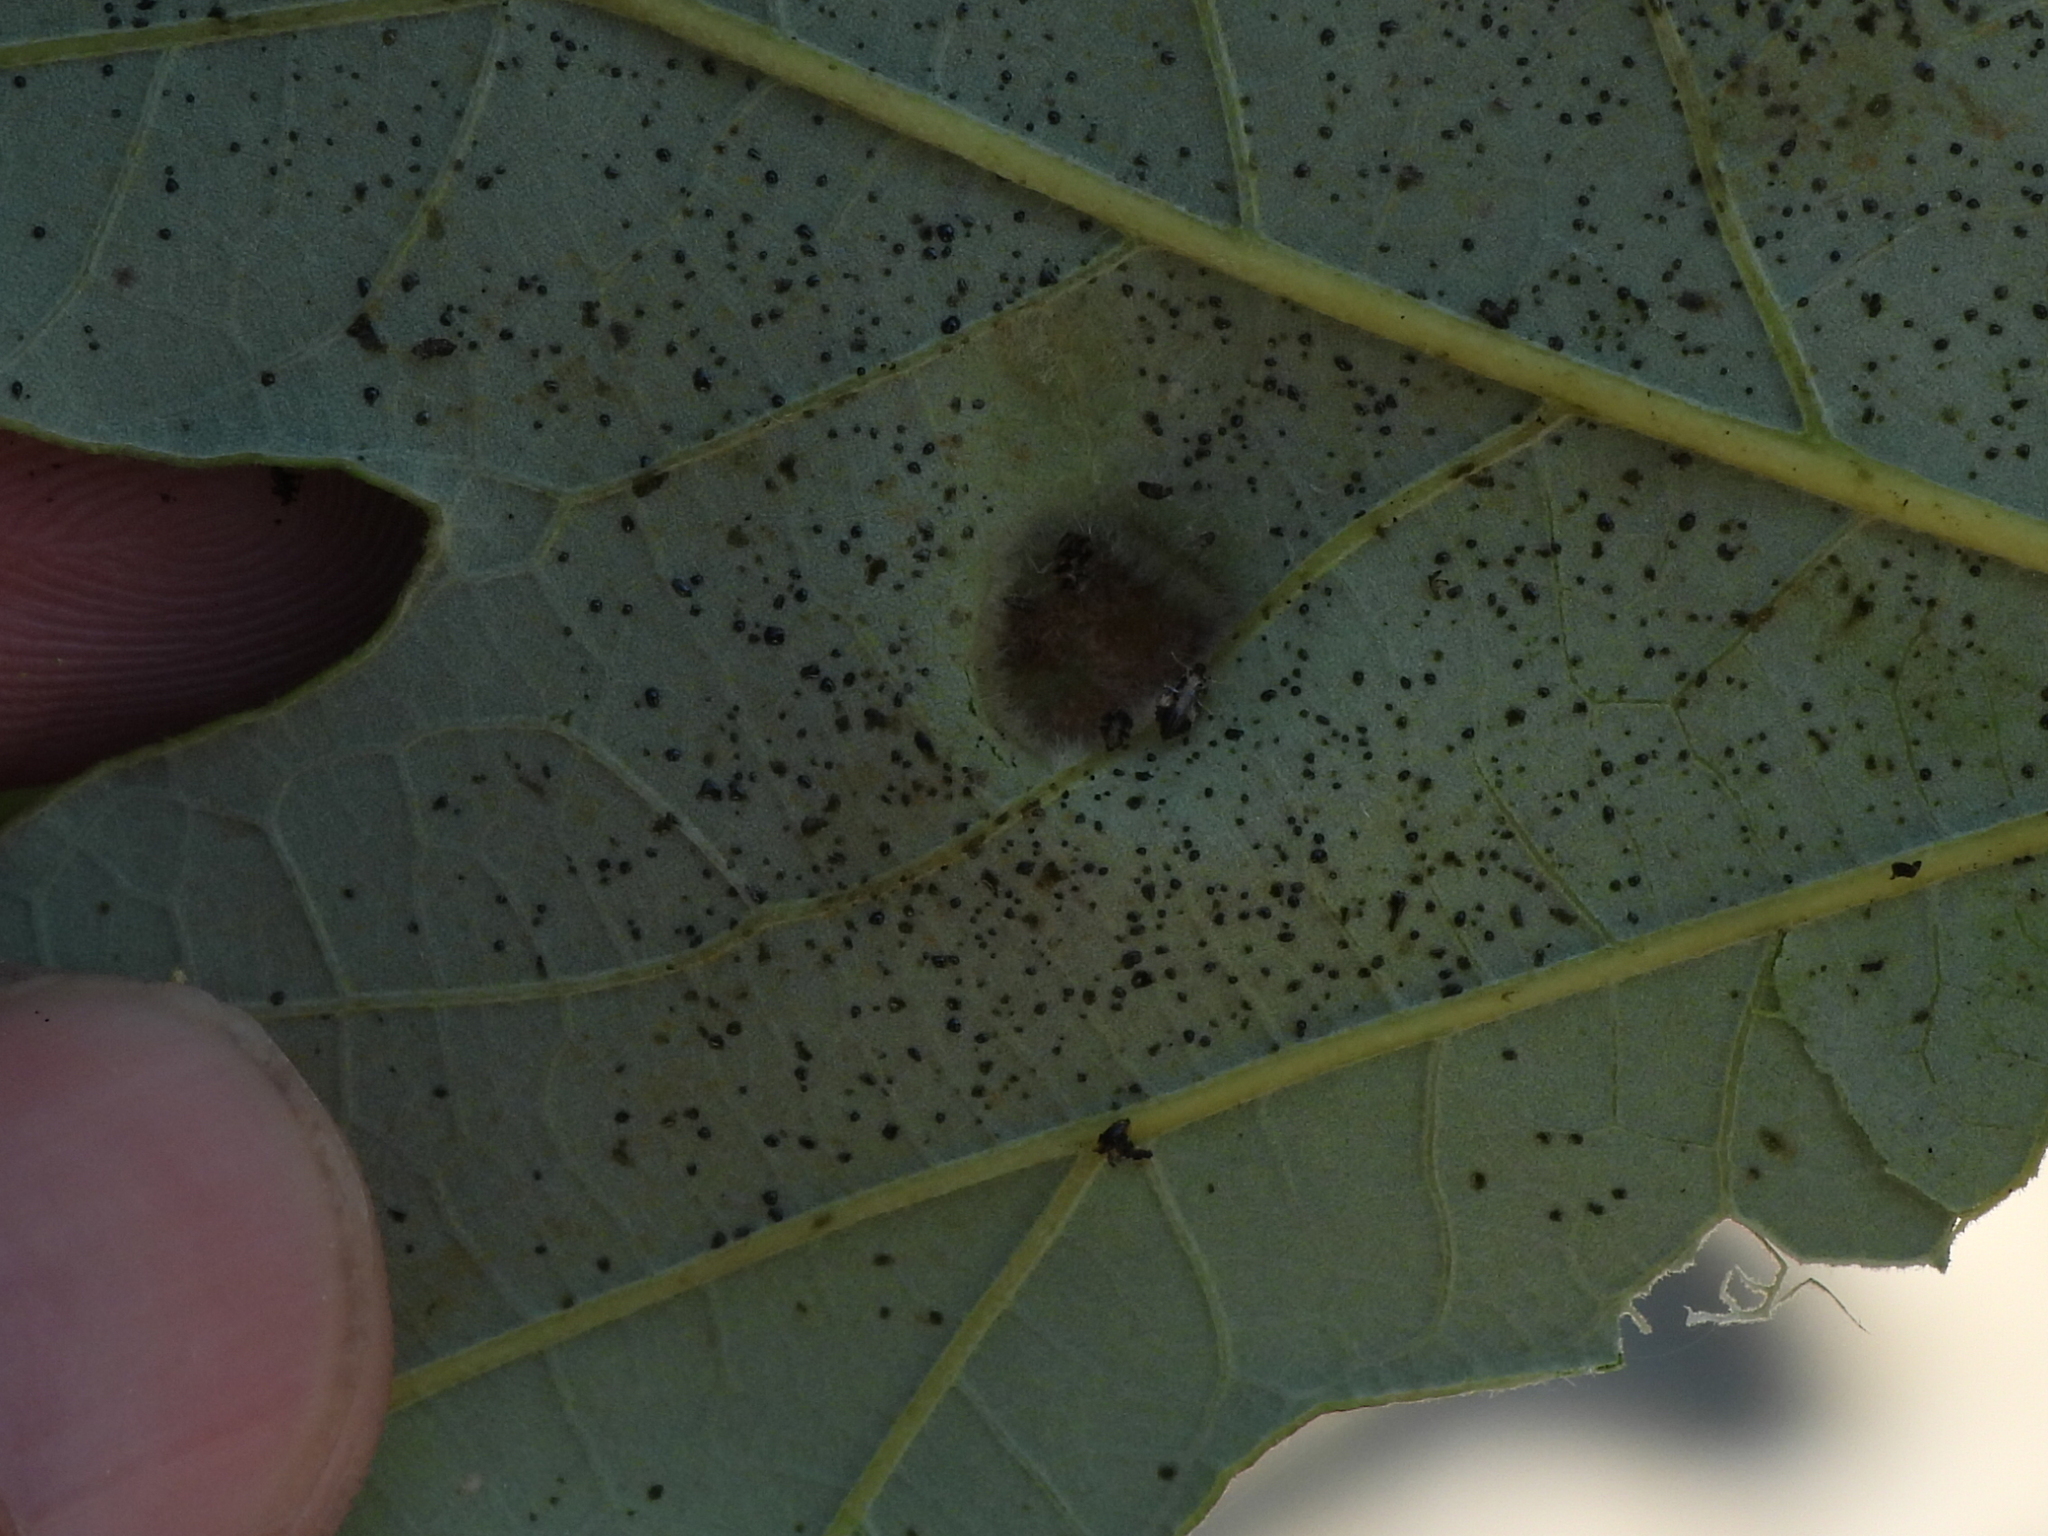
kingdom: Animalia
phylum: Arthropoda
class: Arachnida
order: Trombidiformes
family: Eriophyidae
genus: Aceria
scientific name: Aceria quercina
